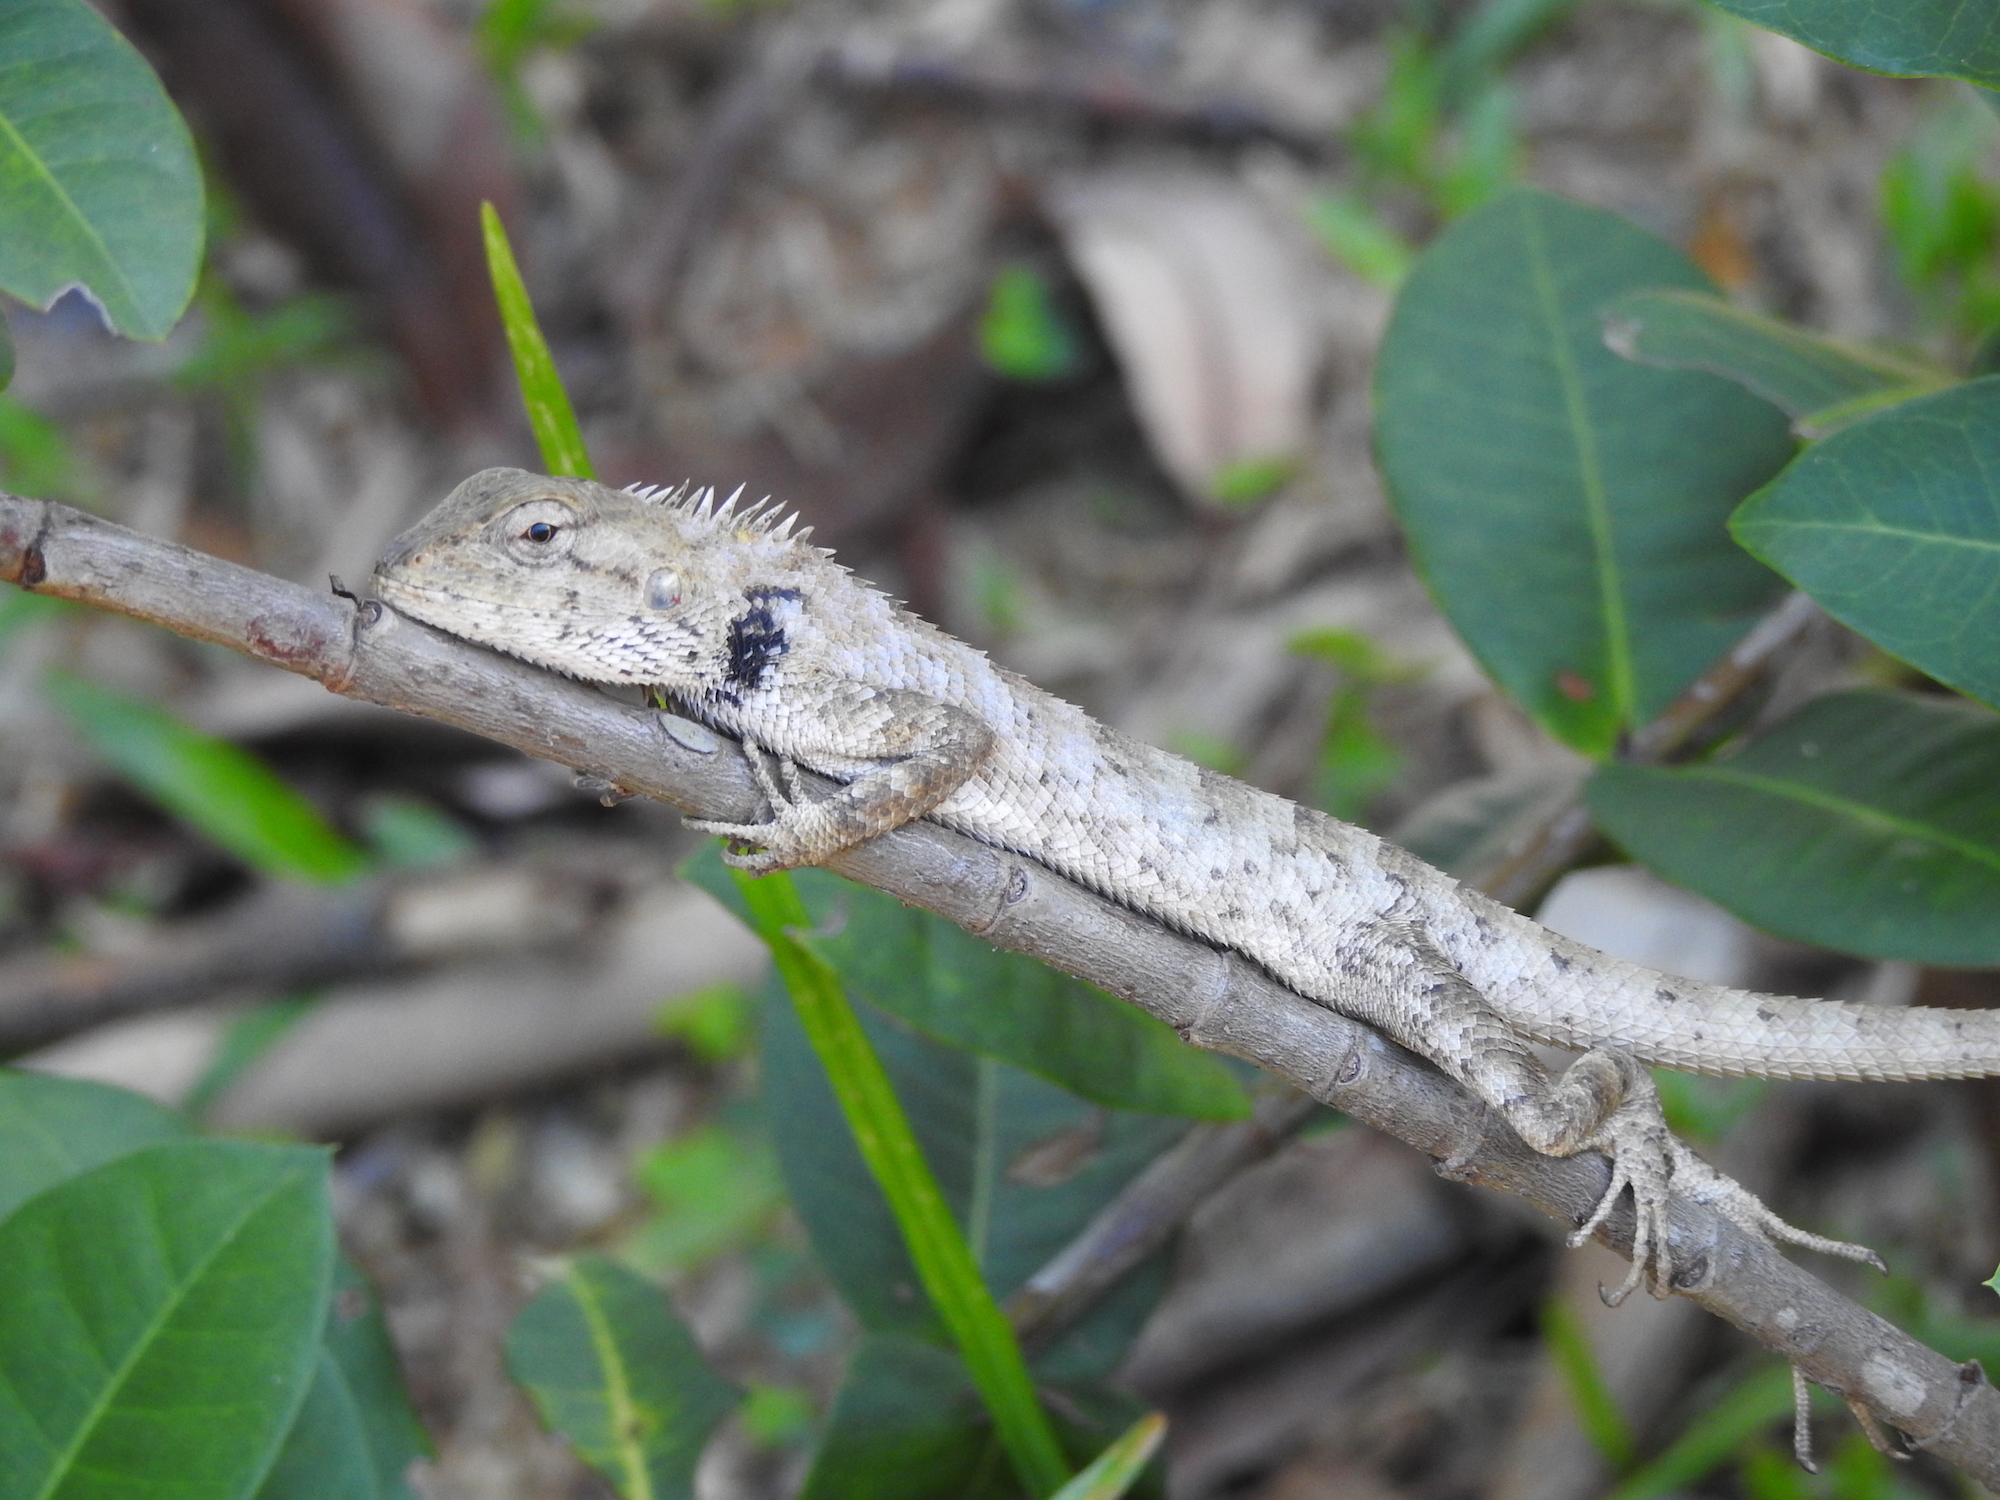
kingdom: Animalia
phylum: Chordata
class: Squamata
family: Agamidae
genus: Calotes
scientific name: Calotes versicolor
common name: Oriental garden lizard
